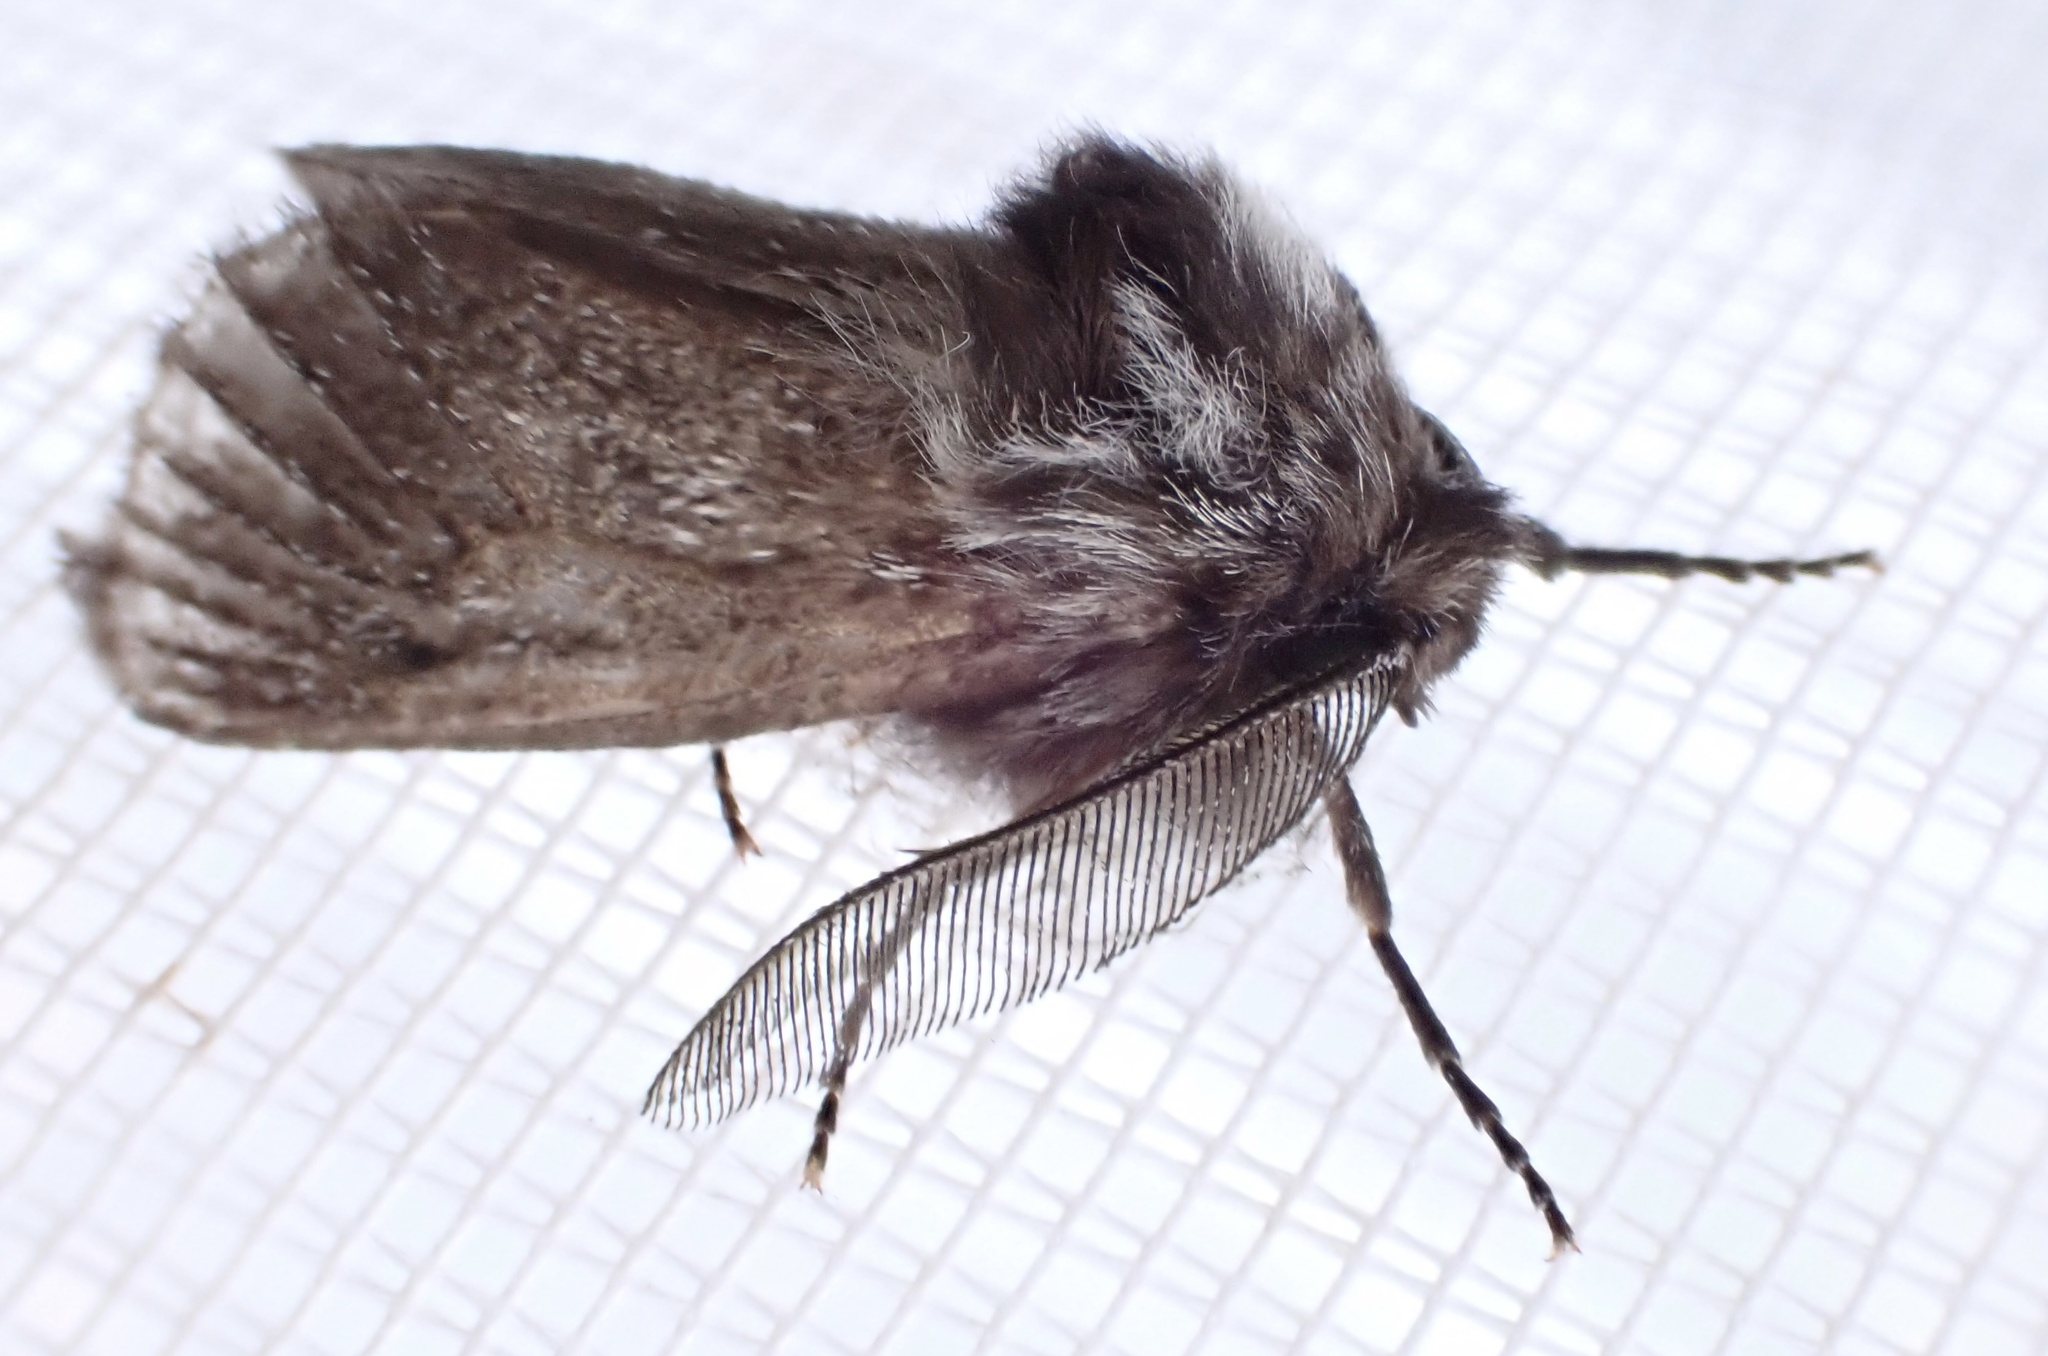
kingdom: Animalia
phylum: Arthropoda
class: Insecta
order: Lepidoptera
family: Cossidae
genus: Ptilomacra
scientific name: Ptilomacra senex
